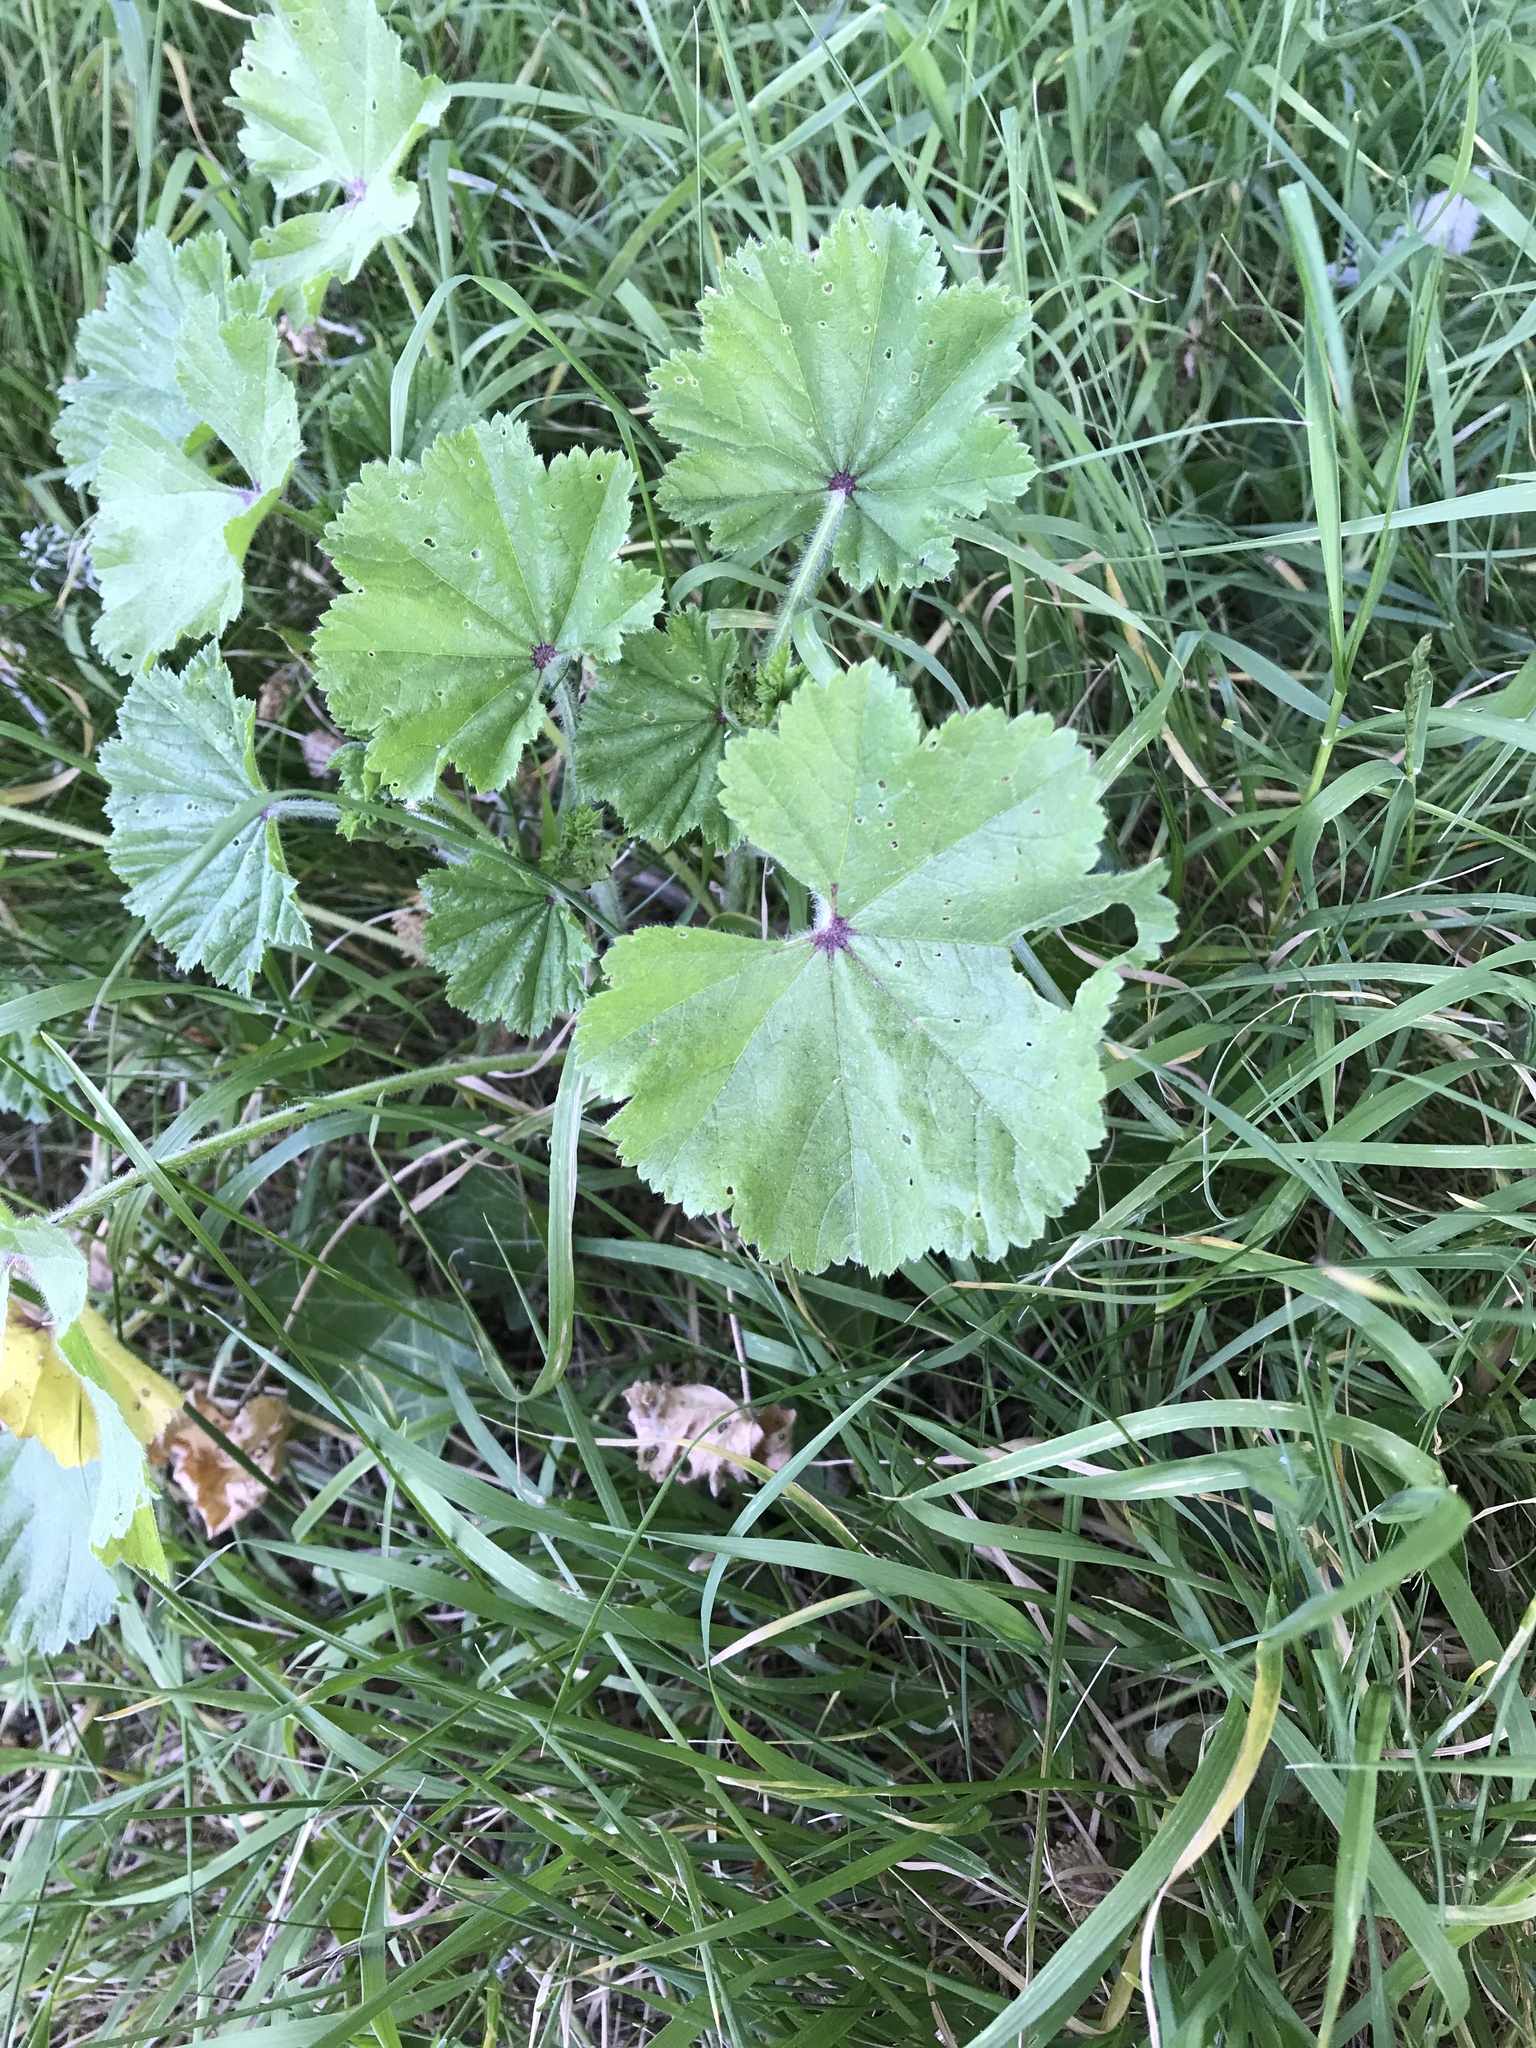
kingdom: Plantae
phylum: Tracheophyta
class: Magnoliopsida
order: Malvales
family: Malvaceae
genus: Malva
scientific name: Malva sylvestris
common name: Common mallow
